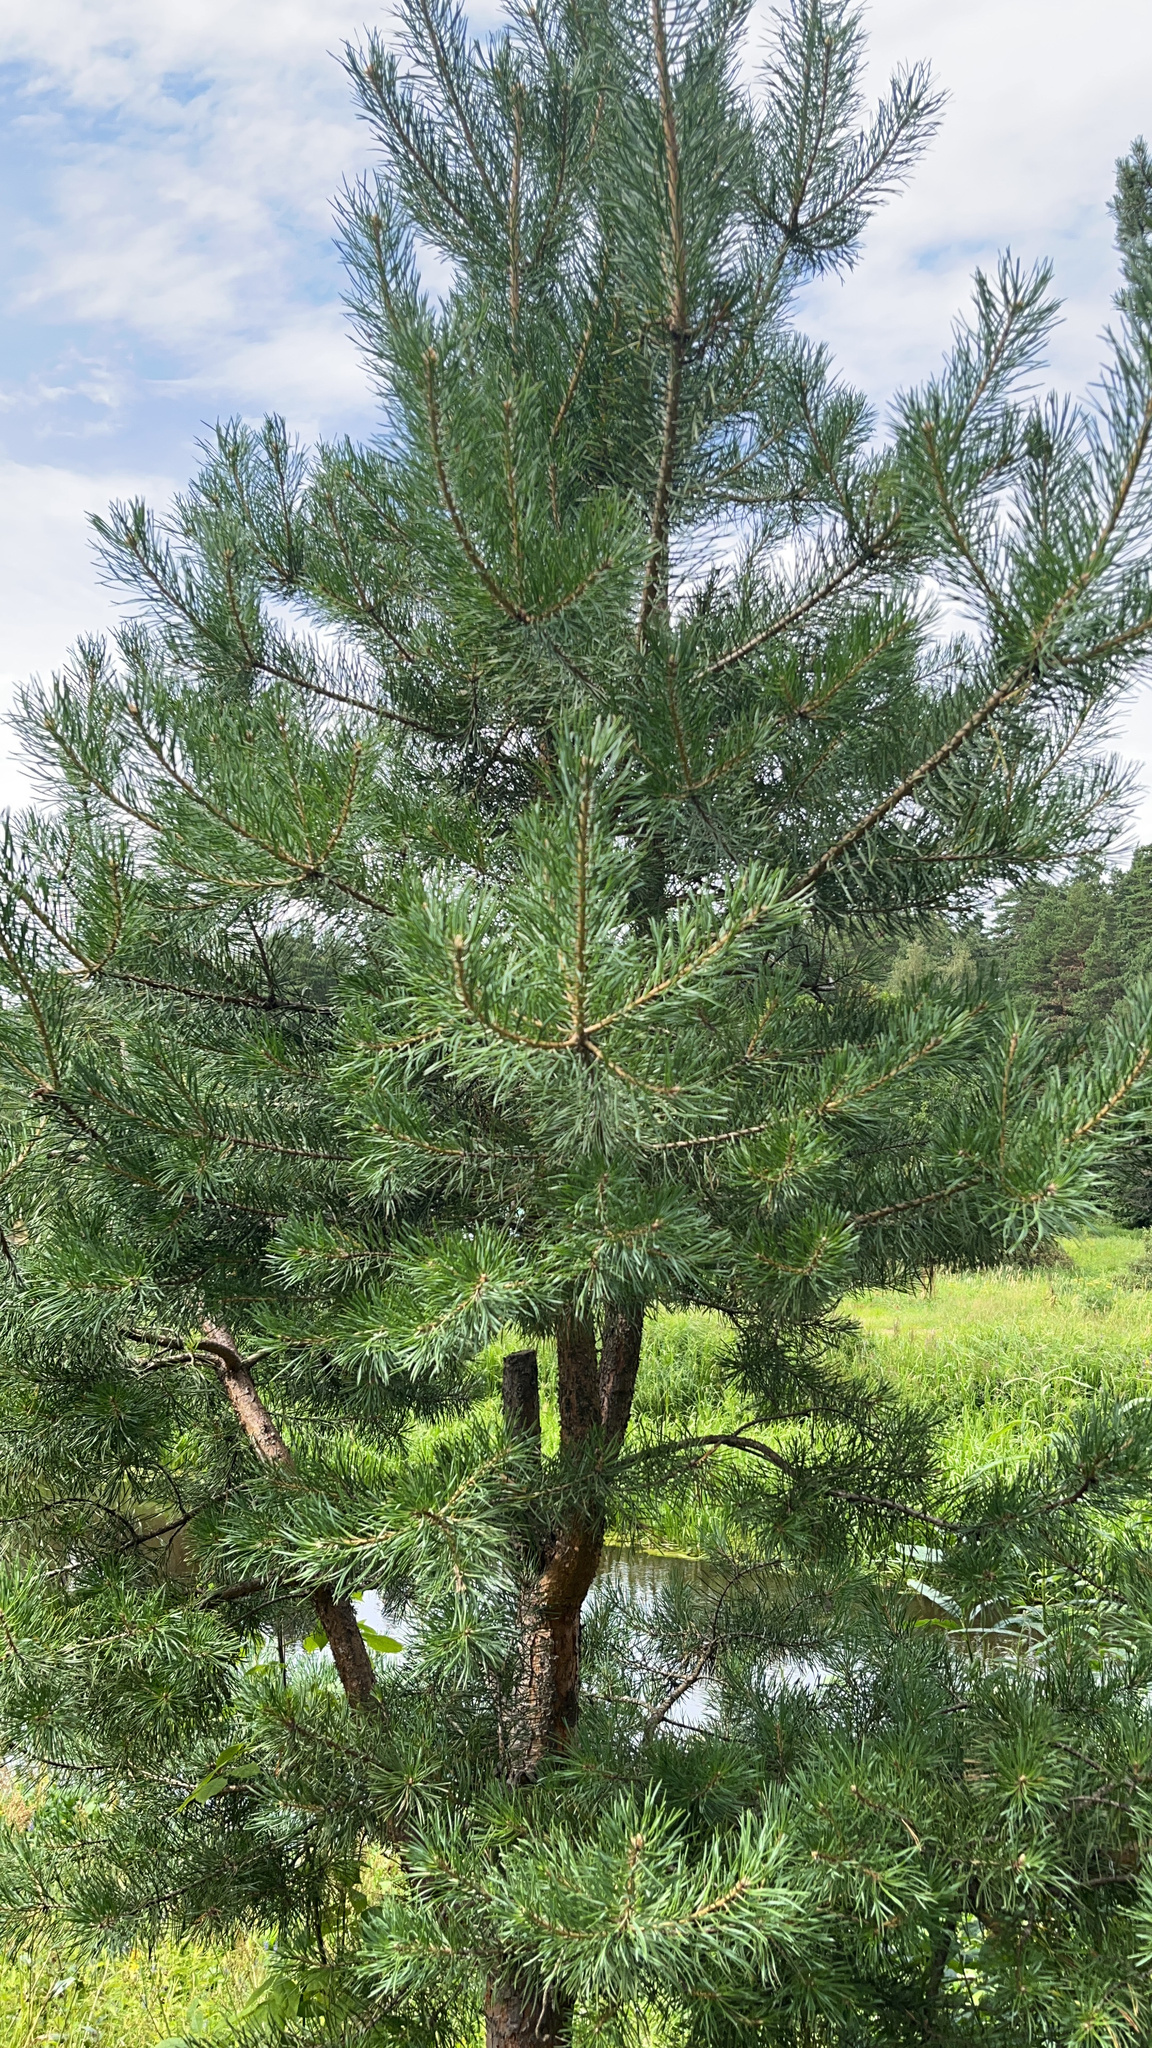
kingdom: Plantae
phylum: Tracheophyta
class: Pinopsida
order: Pinales
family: Pinaceae
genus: Pinus
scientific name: Pinus sylvestris
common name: Scots pine
